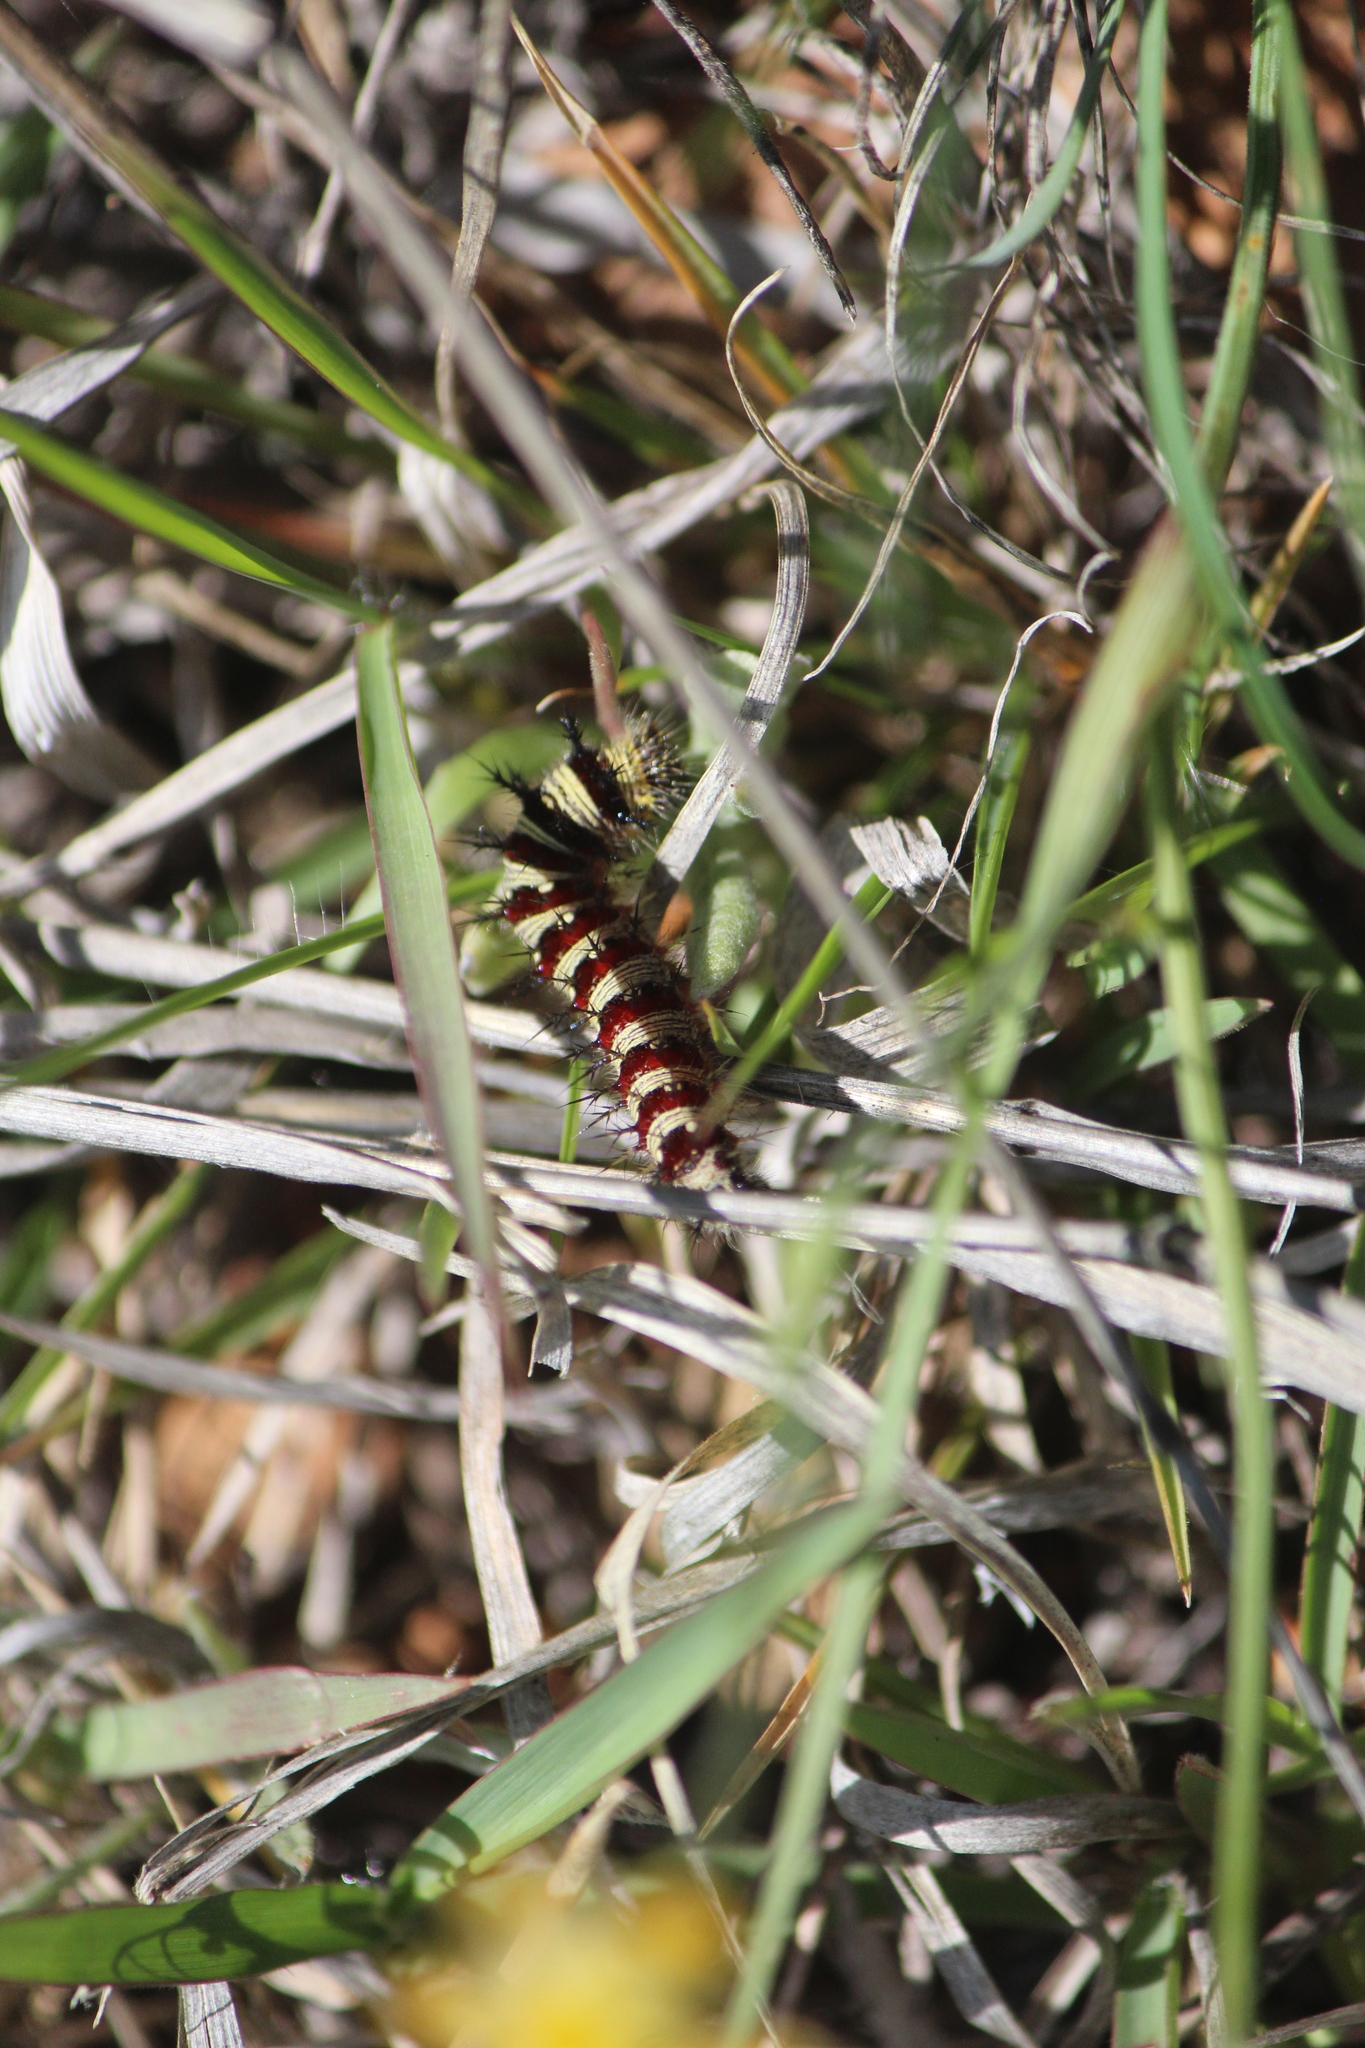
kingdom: Animalia
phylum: Arthropoda
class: Insecta
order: Lepidoptera
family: Nymphalidae
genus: Vanessa
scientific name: Vanessa virginiensis
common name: American lady
